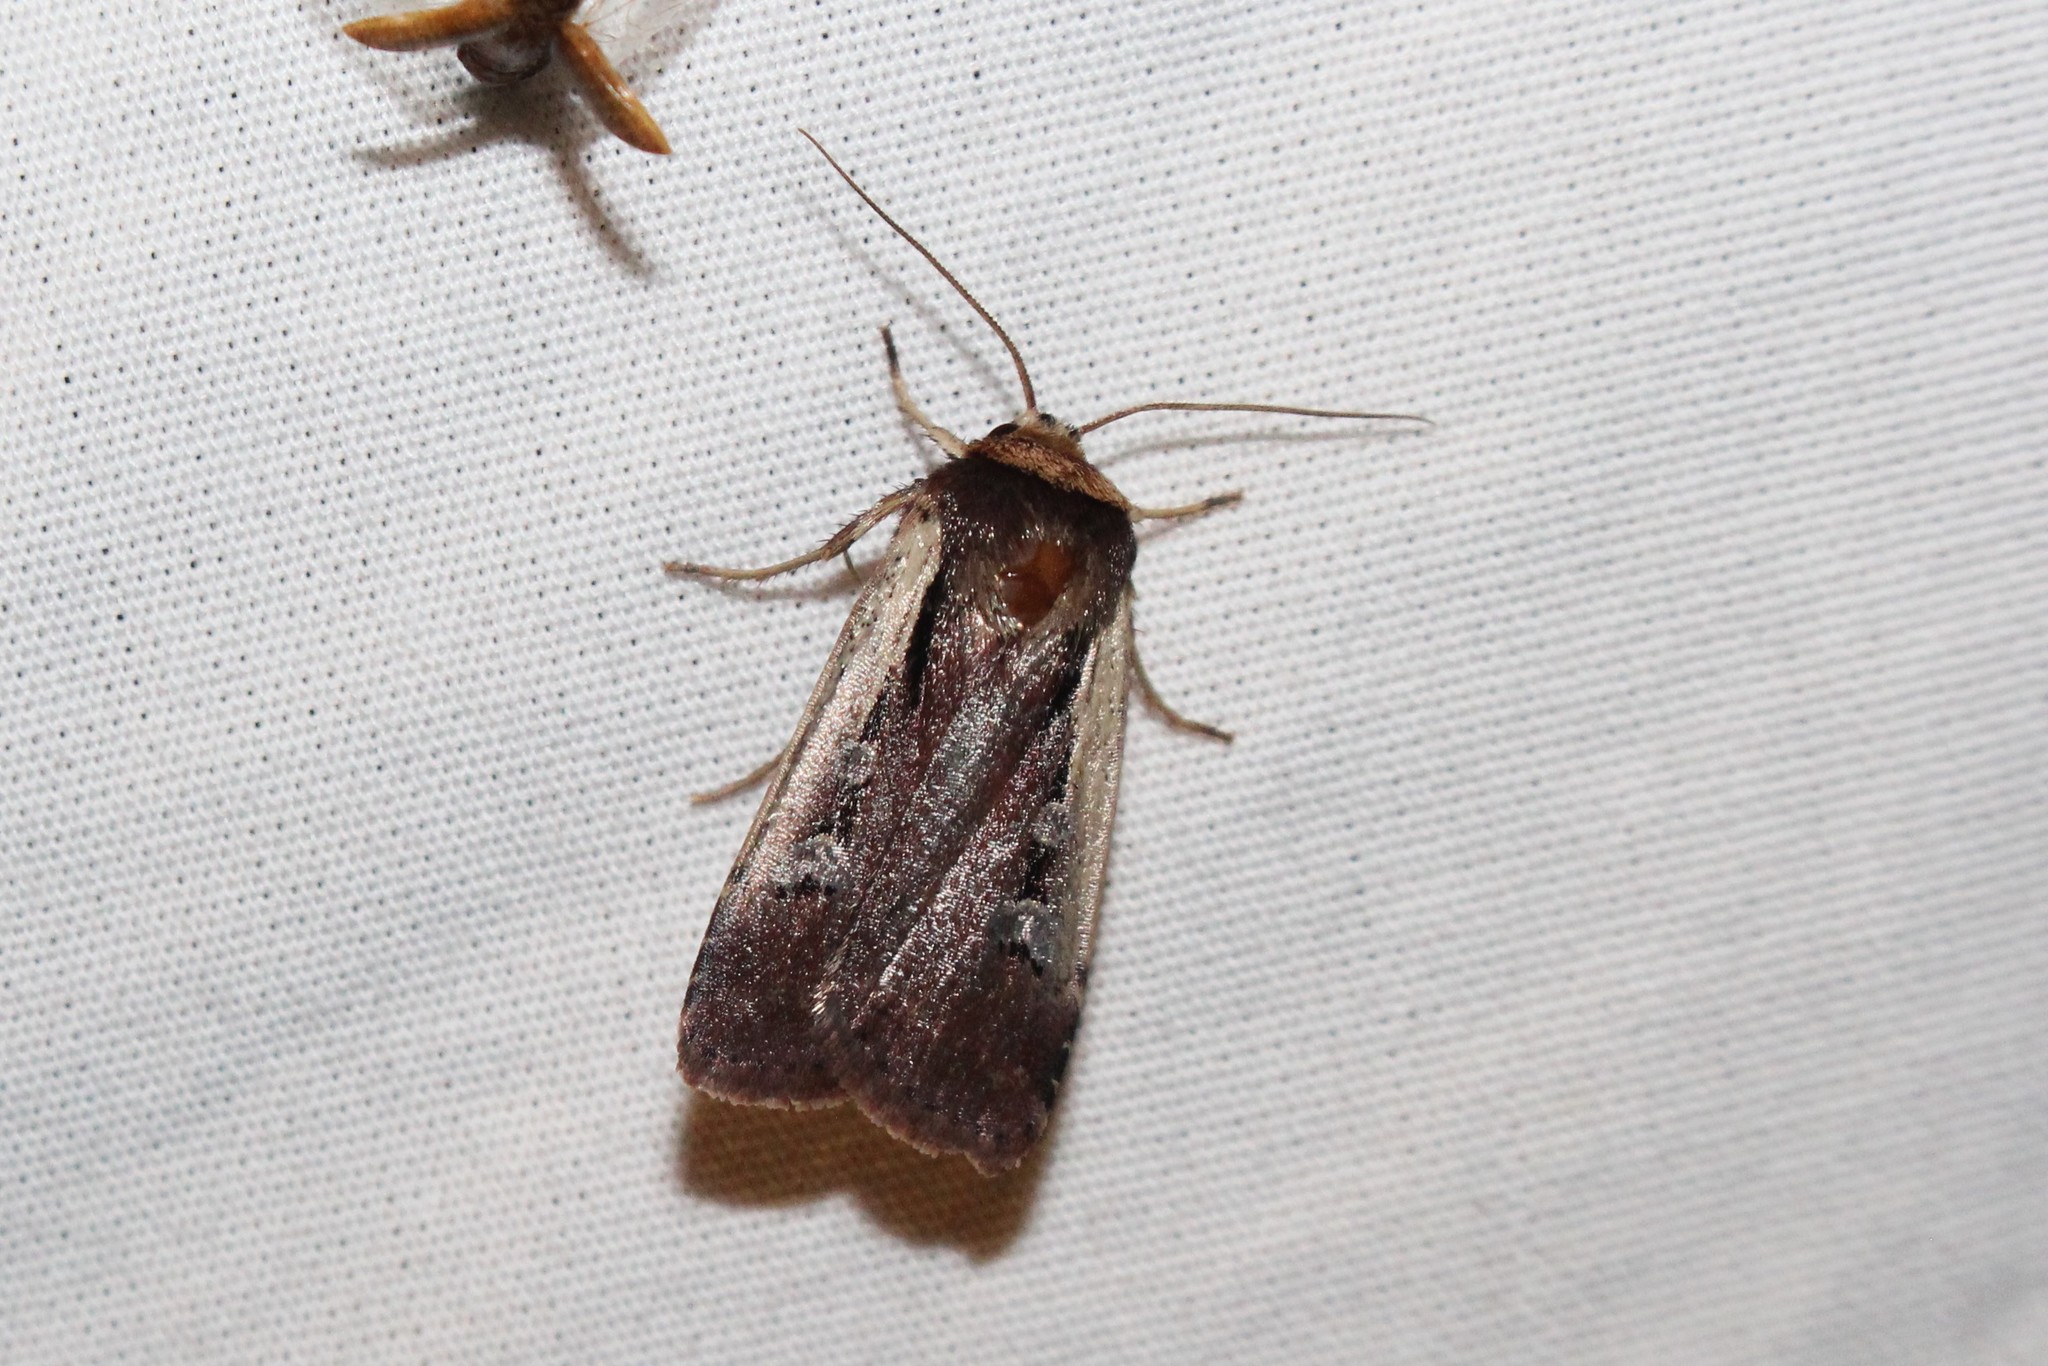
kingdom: Animalia
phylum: Arthropoda
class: Insecta
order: Lepidoptera
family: Noctuidae
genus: Ochropleura
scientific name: Ochropleura implecta
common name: Flame-shouldered dart
